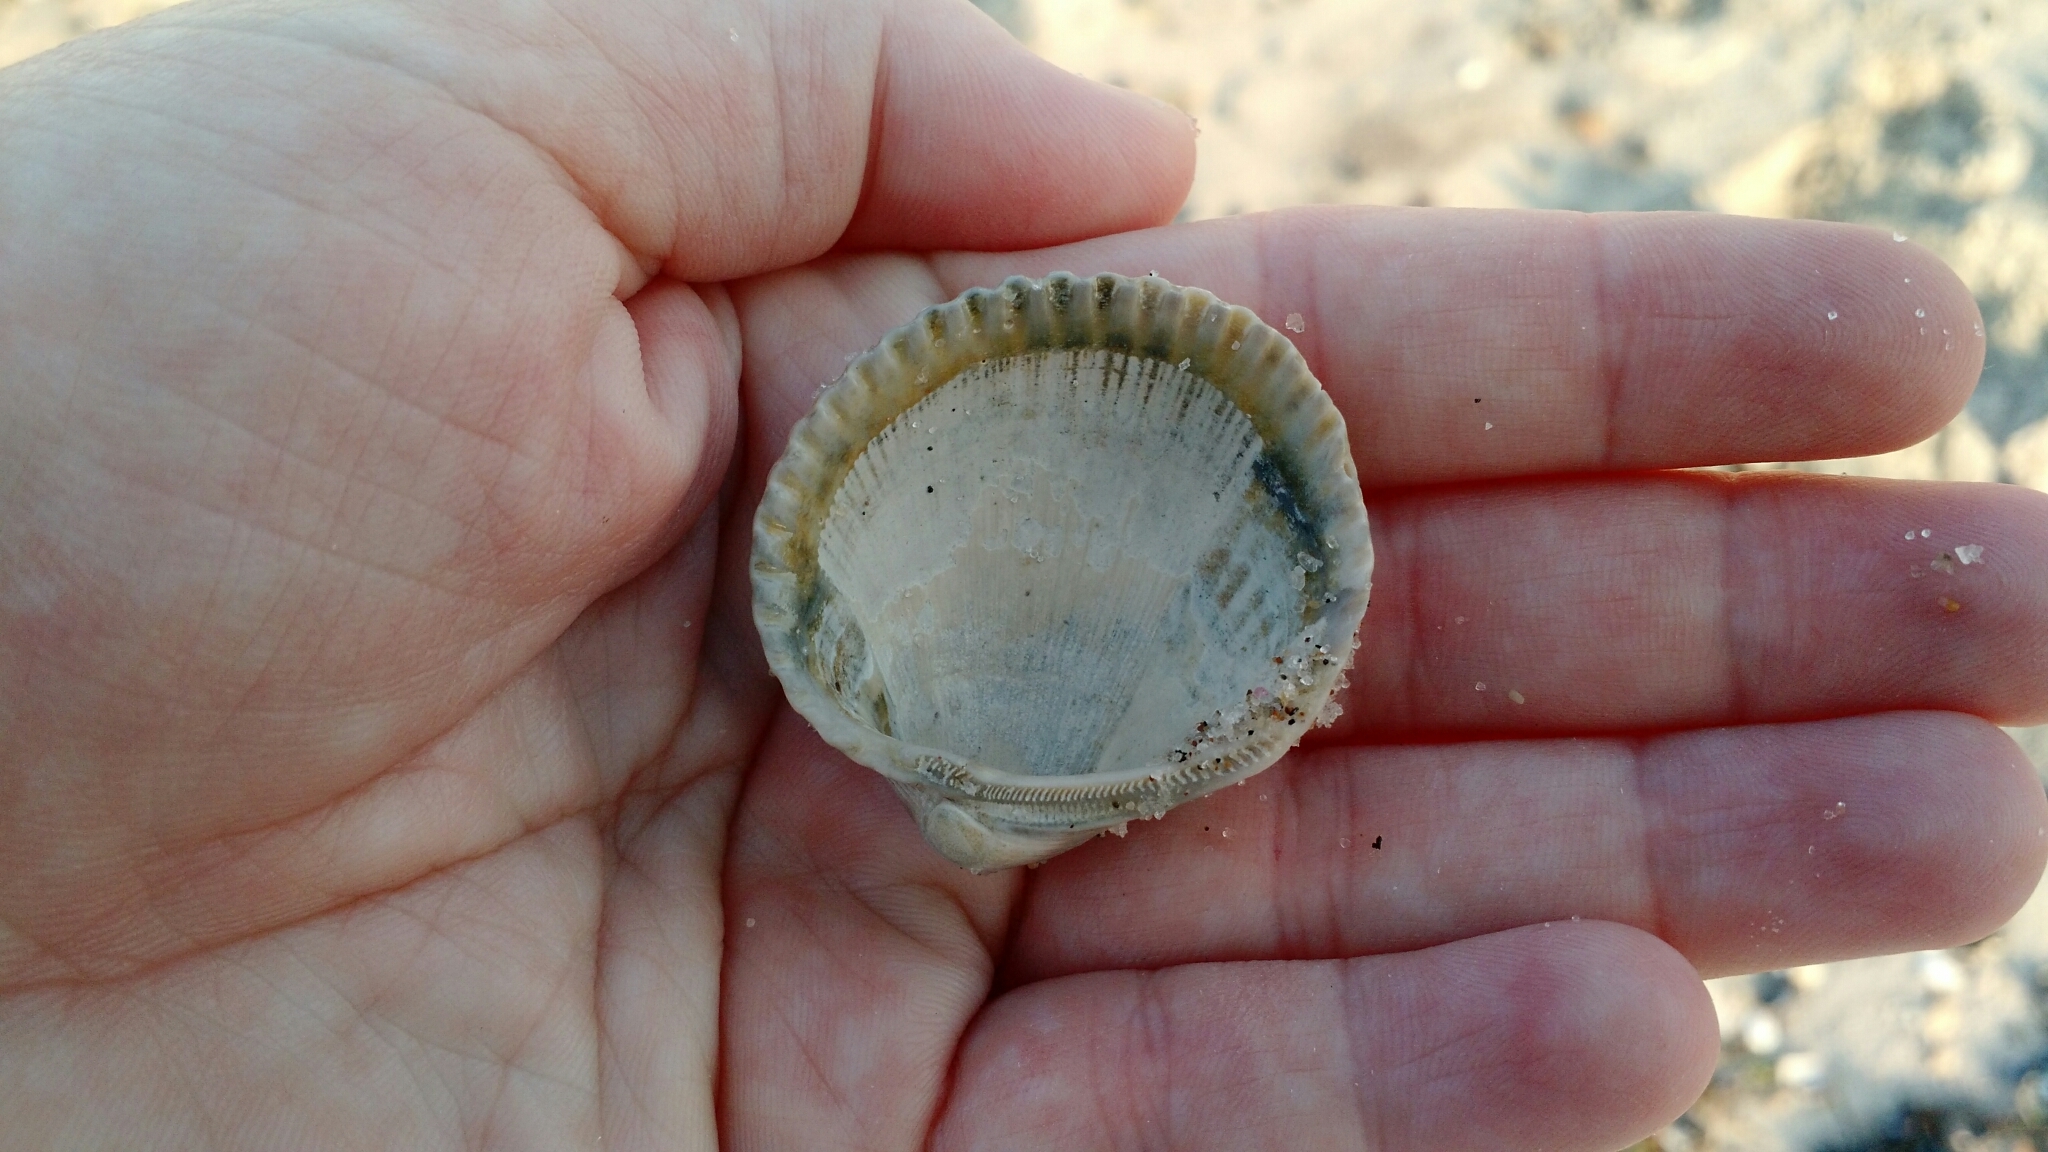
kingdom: Animalia
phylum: Mollusca
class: Bivalvia
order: Arcida
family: Arcidae
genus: Lunarca
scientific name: Lunarca ovalis
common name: Blood ark
